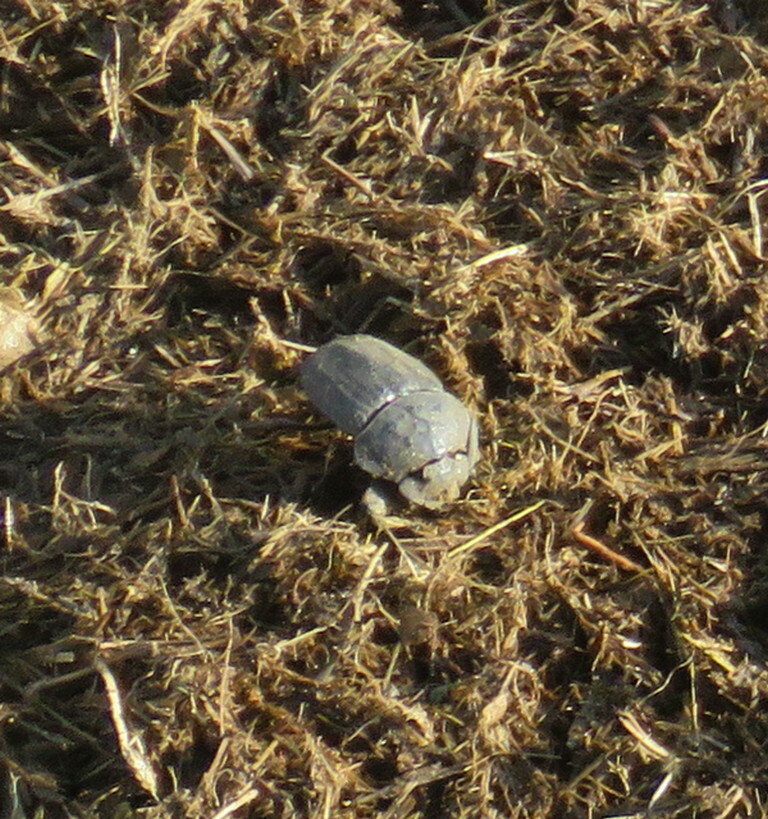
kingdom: Animalia
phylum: Arthropoda
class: Insecta
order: Coleoptera
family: Scarabaeidae
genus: Pachylomera
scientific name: Pachylomera femoralis
